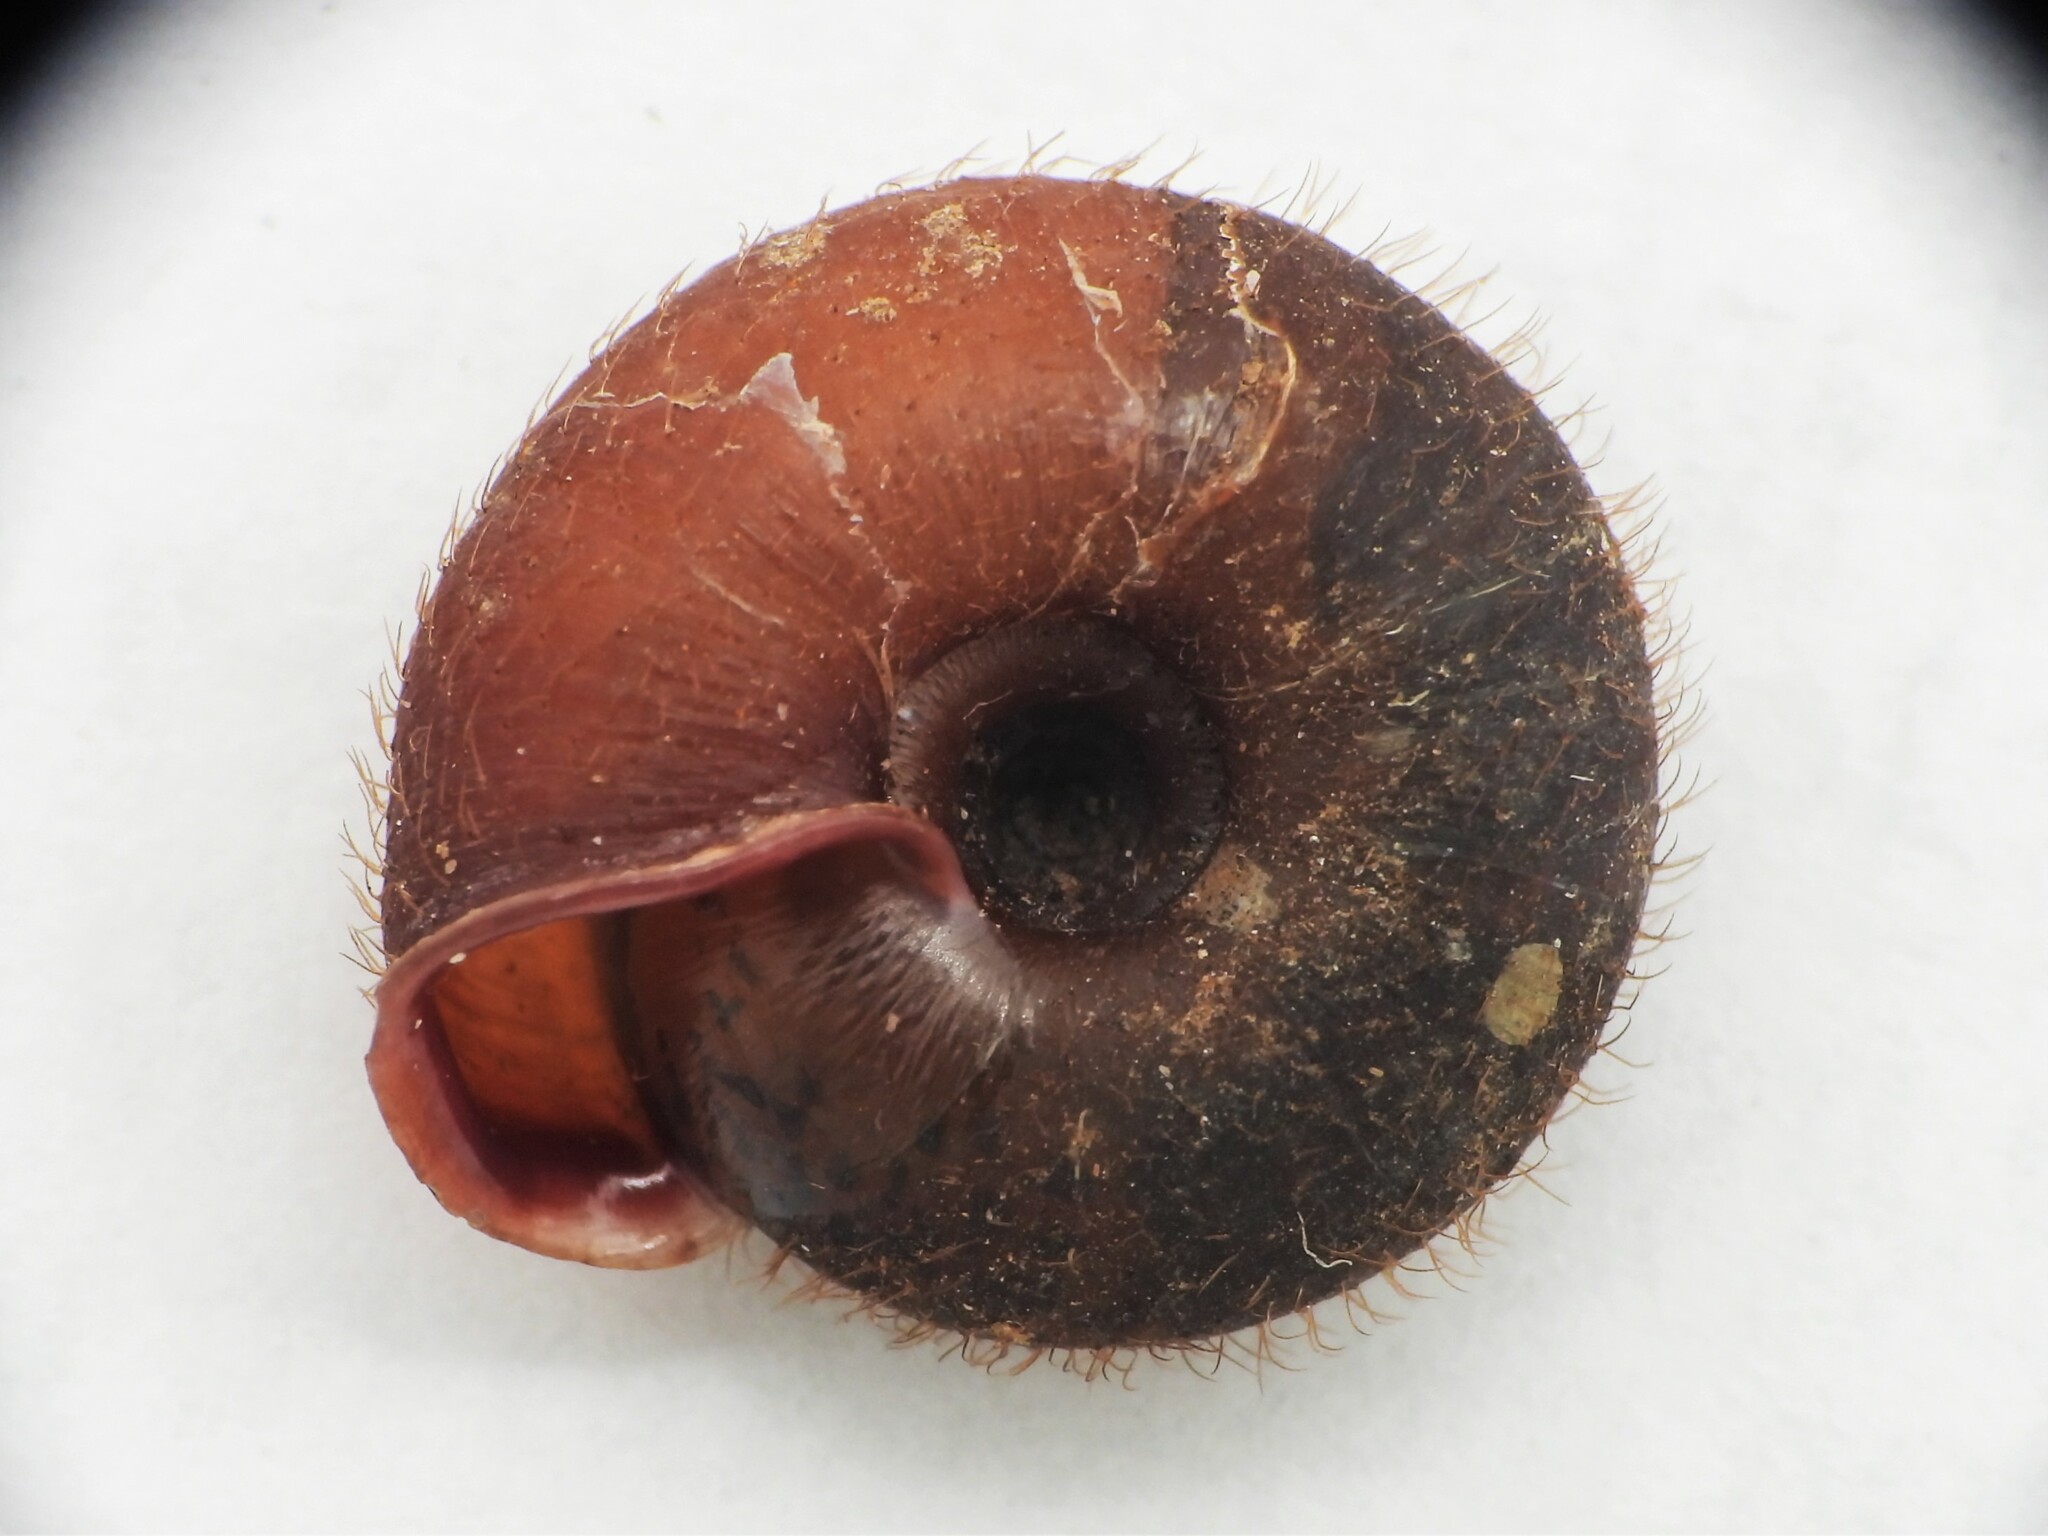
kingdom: Animalia
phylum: Mollusca
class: Gastropoda
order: Stylommatophora
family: Helicodontidae
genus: Helicodonta
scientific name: Helicodonta obvoluta
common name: Cheese snail
